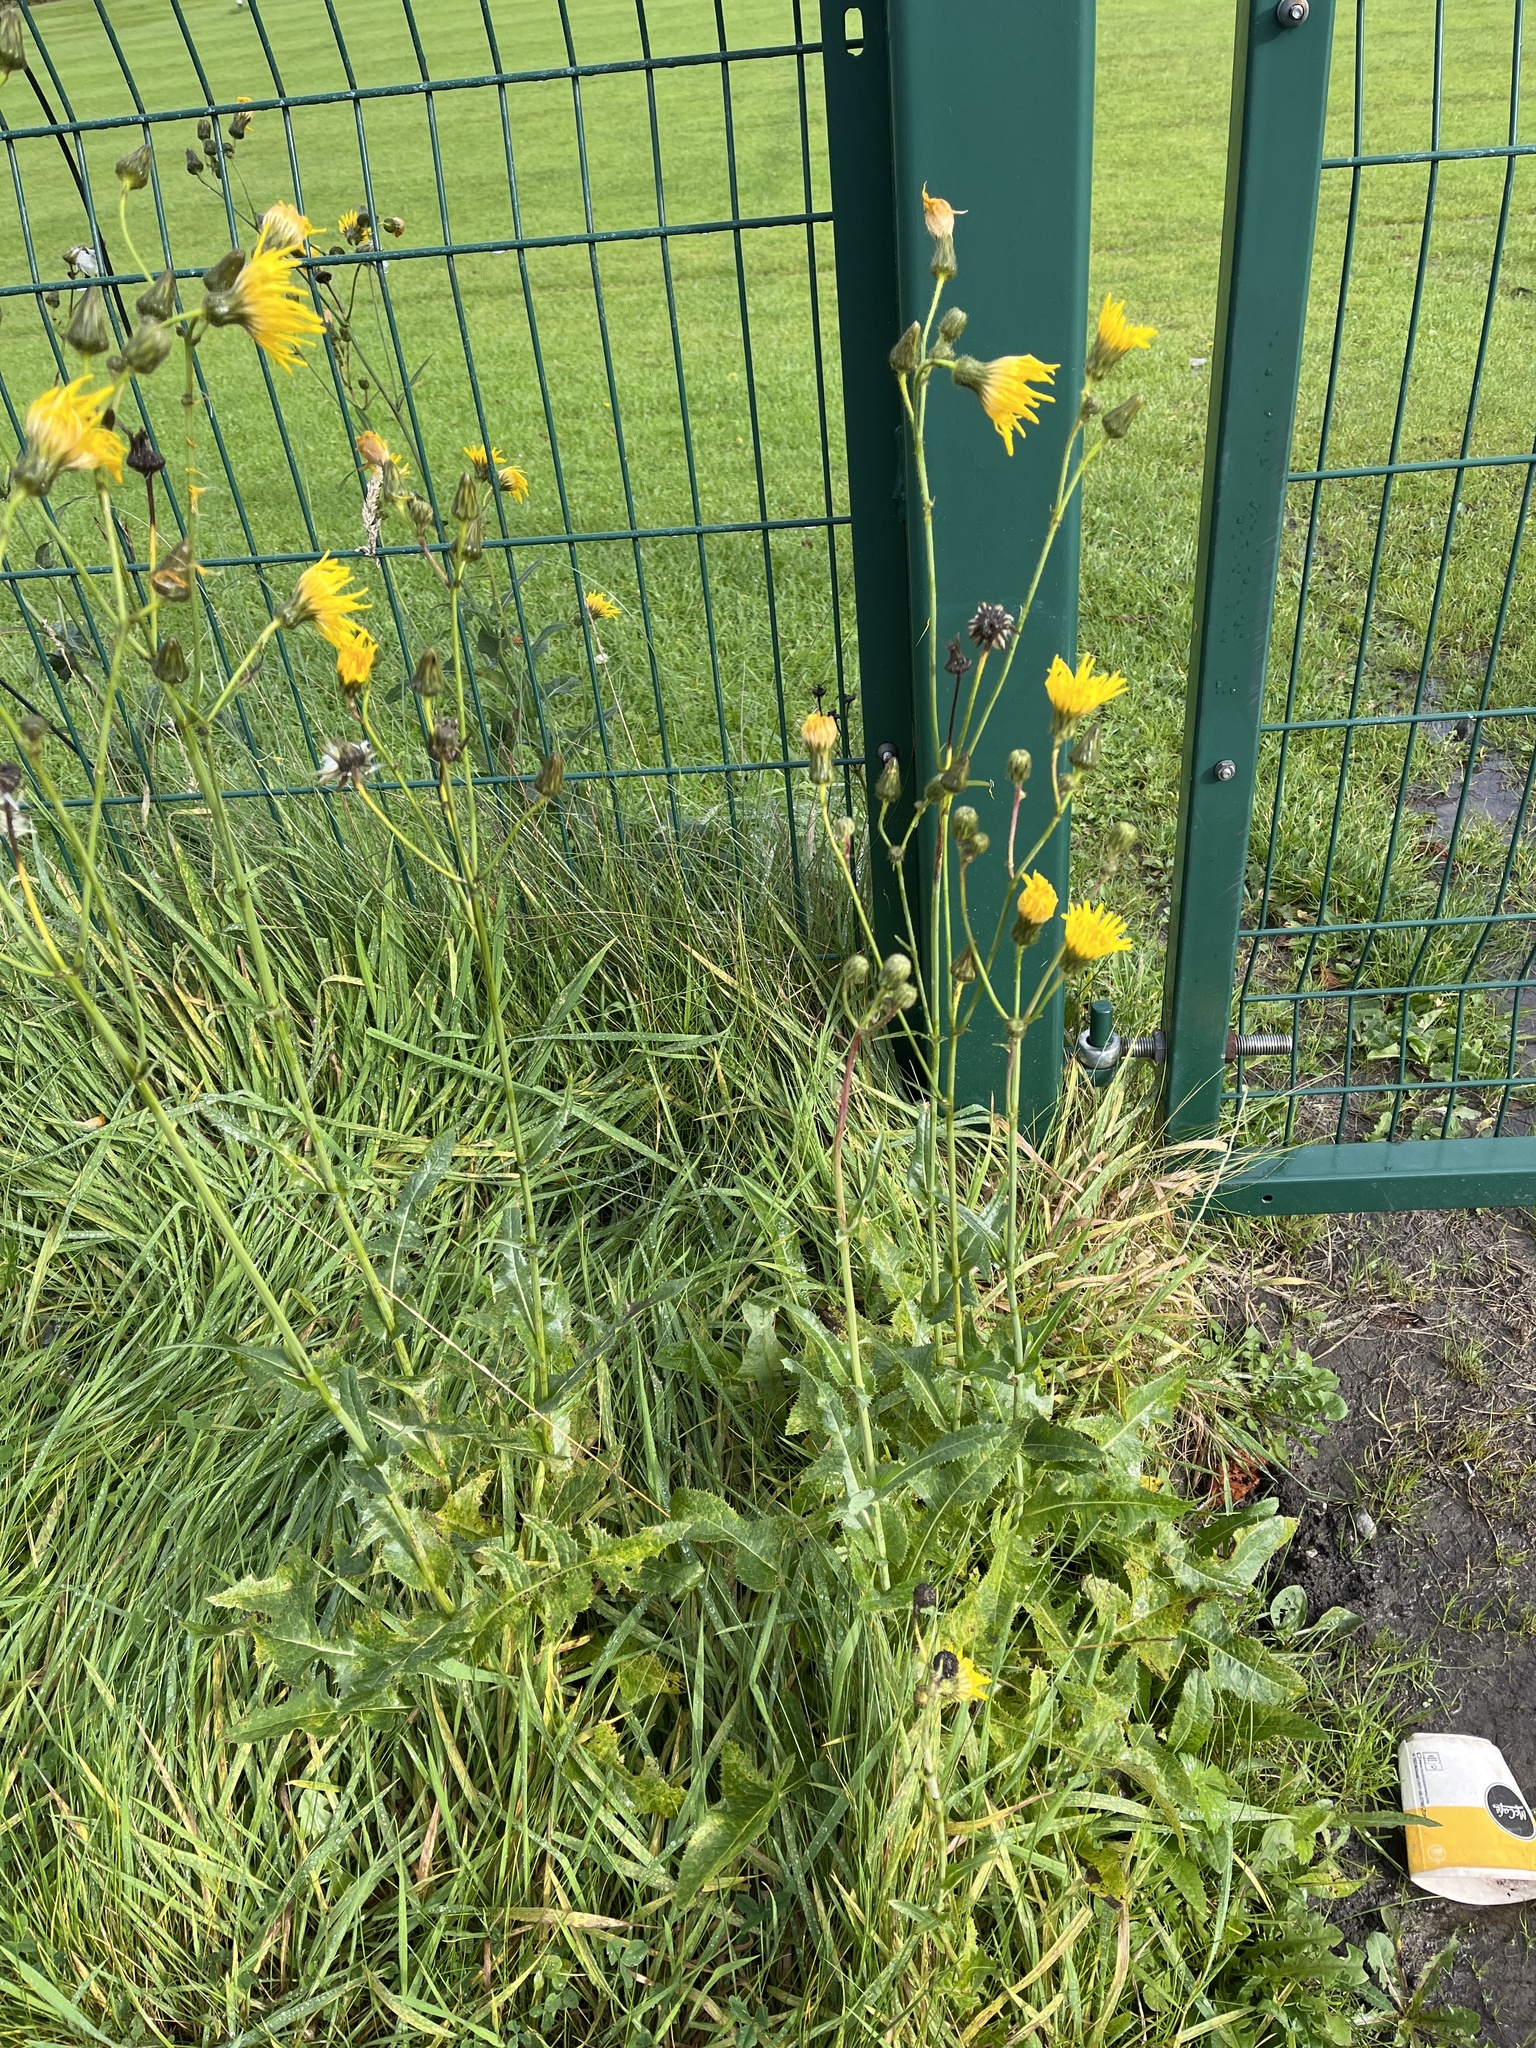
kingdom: Plantae
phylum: Tracheophyta
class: Magnoliopsida
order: Asterales
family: Asteraceae
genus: Sonchus
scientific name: Sonchus arvensis
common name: Perennial sow-thistle
